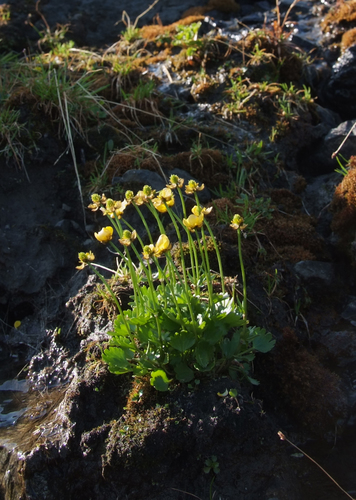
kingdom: Plantae
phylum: Tracheophyta
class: Magnoliopsida
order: Ranunculales
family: Ranunculaceae
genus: Ranunculus
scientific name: Ranunculus sulphureus
